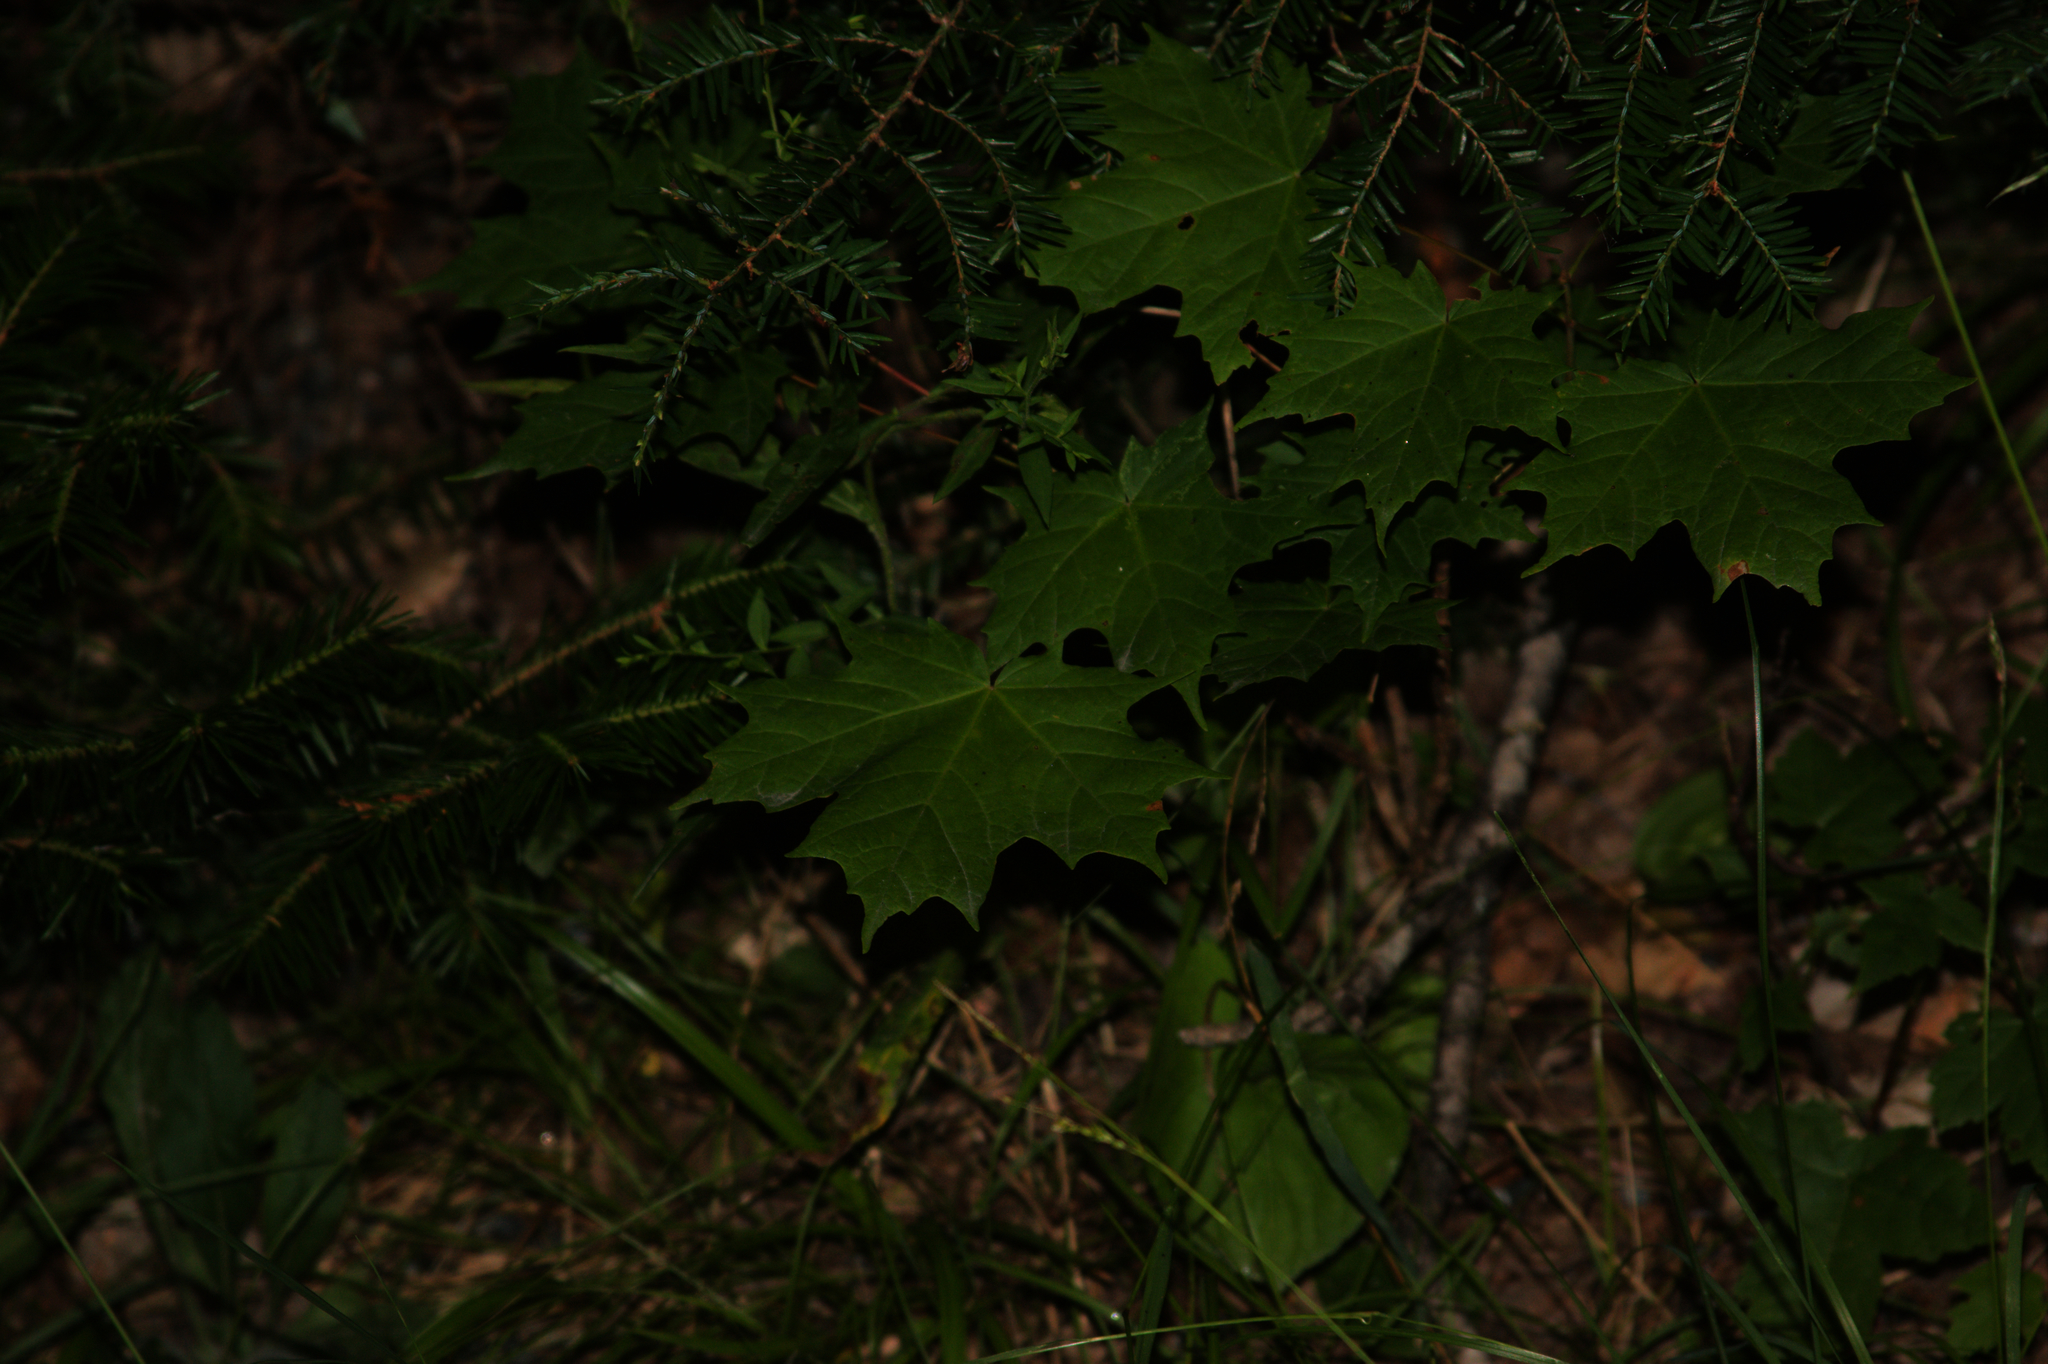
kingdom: Plantae
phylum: Tracheophyta
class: Magnoliopsida
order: Sapindales
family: Sapindaceae
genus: Acer
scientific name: Acer saccharum
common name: Sugar maple
